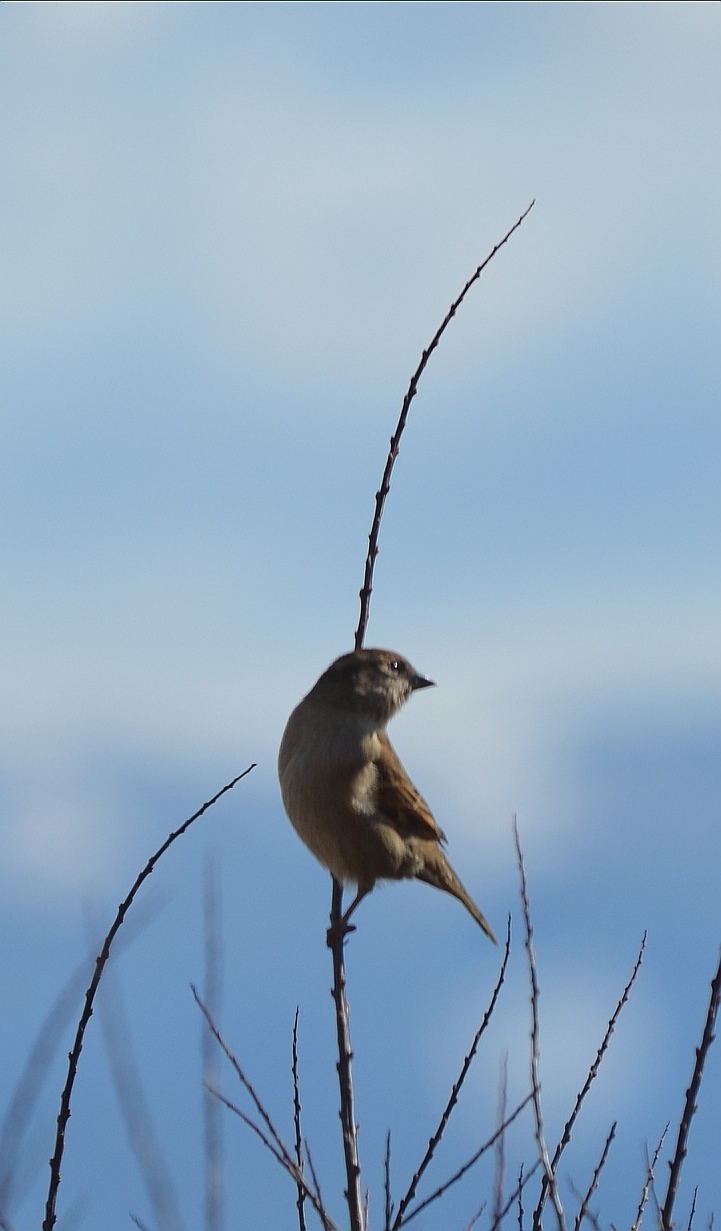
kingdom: Animalia
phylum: Chordata
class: Aves
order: Passeriformes
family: Passeridae
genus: Passer
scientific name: Passer domesticus
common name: House sparrow
